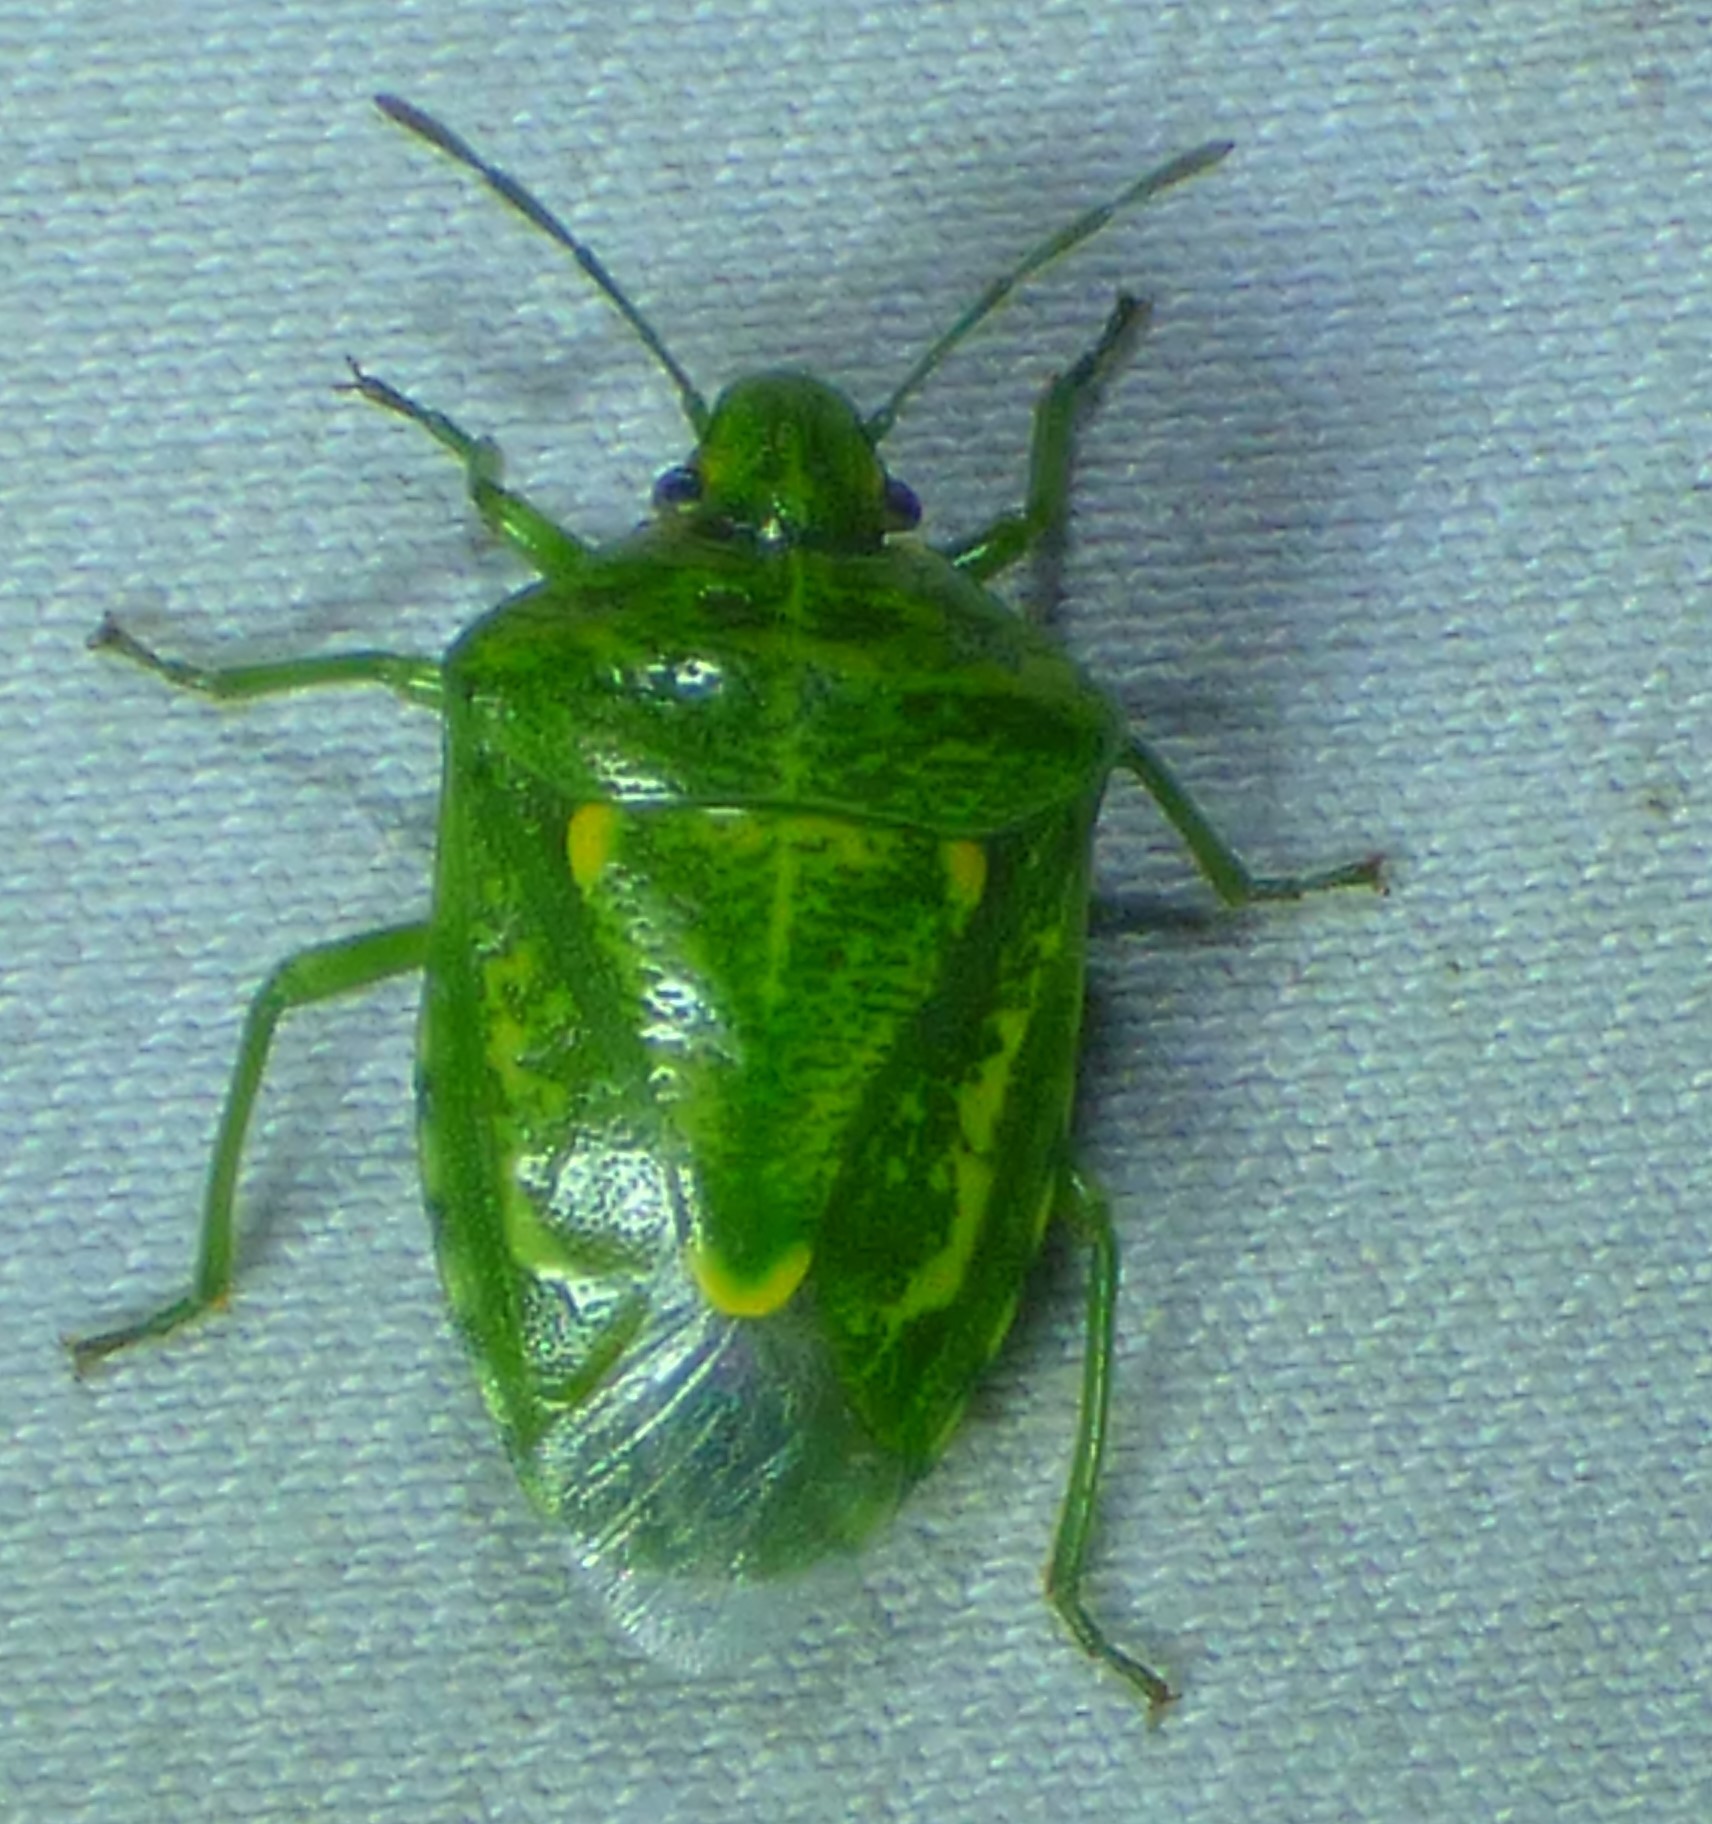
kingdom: Animalia
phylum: Arthropoda
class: Insecta
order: Hemiptera
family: Pentatomidae
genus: Banasa
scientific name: Banasa euchlora
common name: Cedar berry bug
